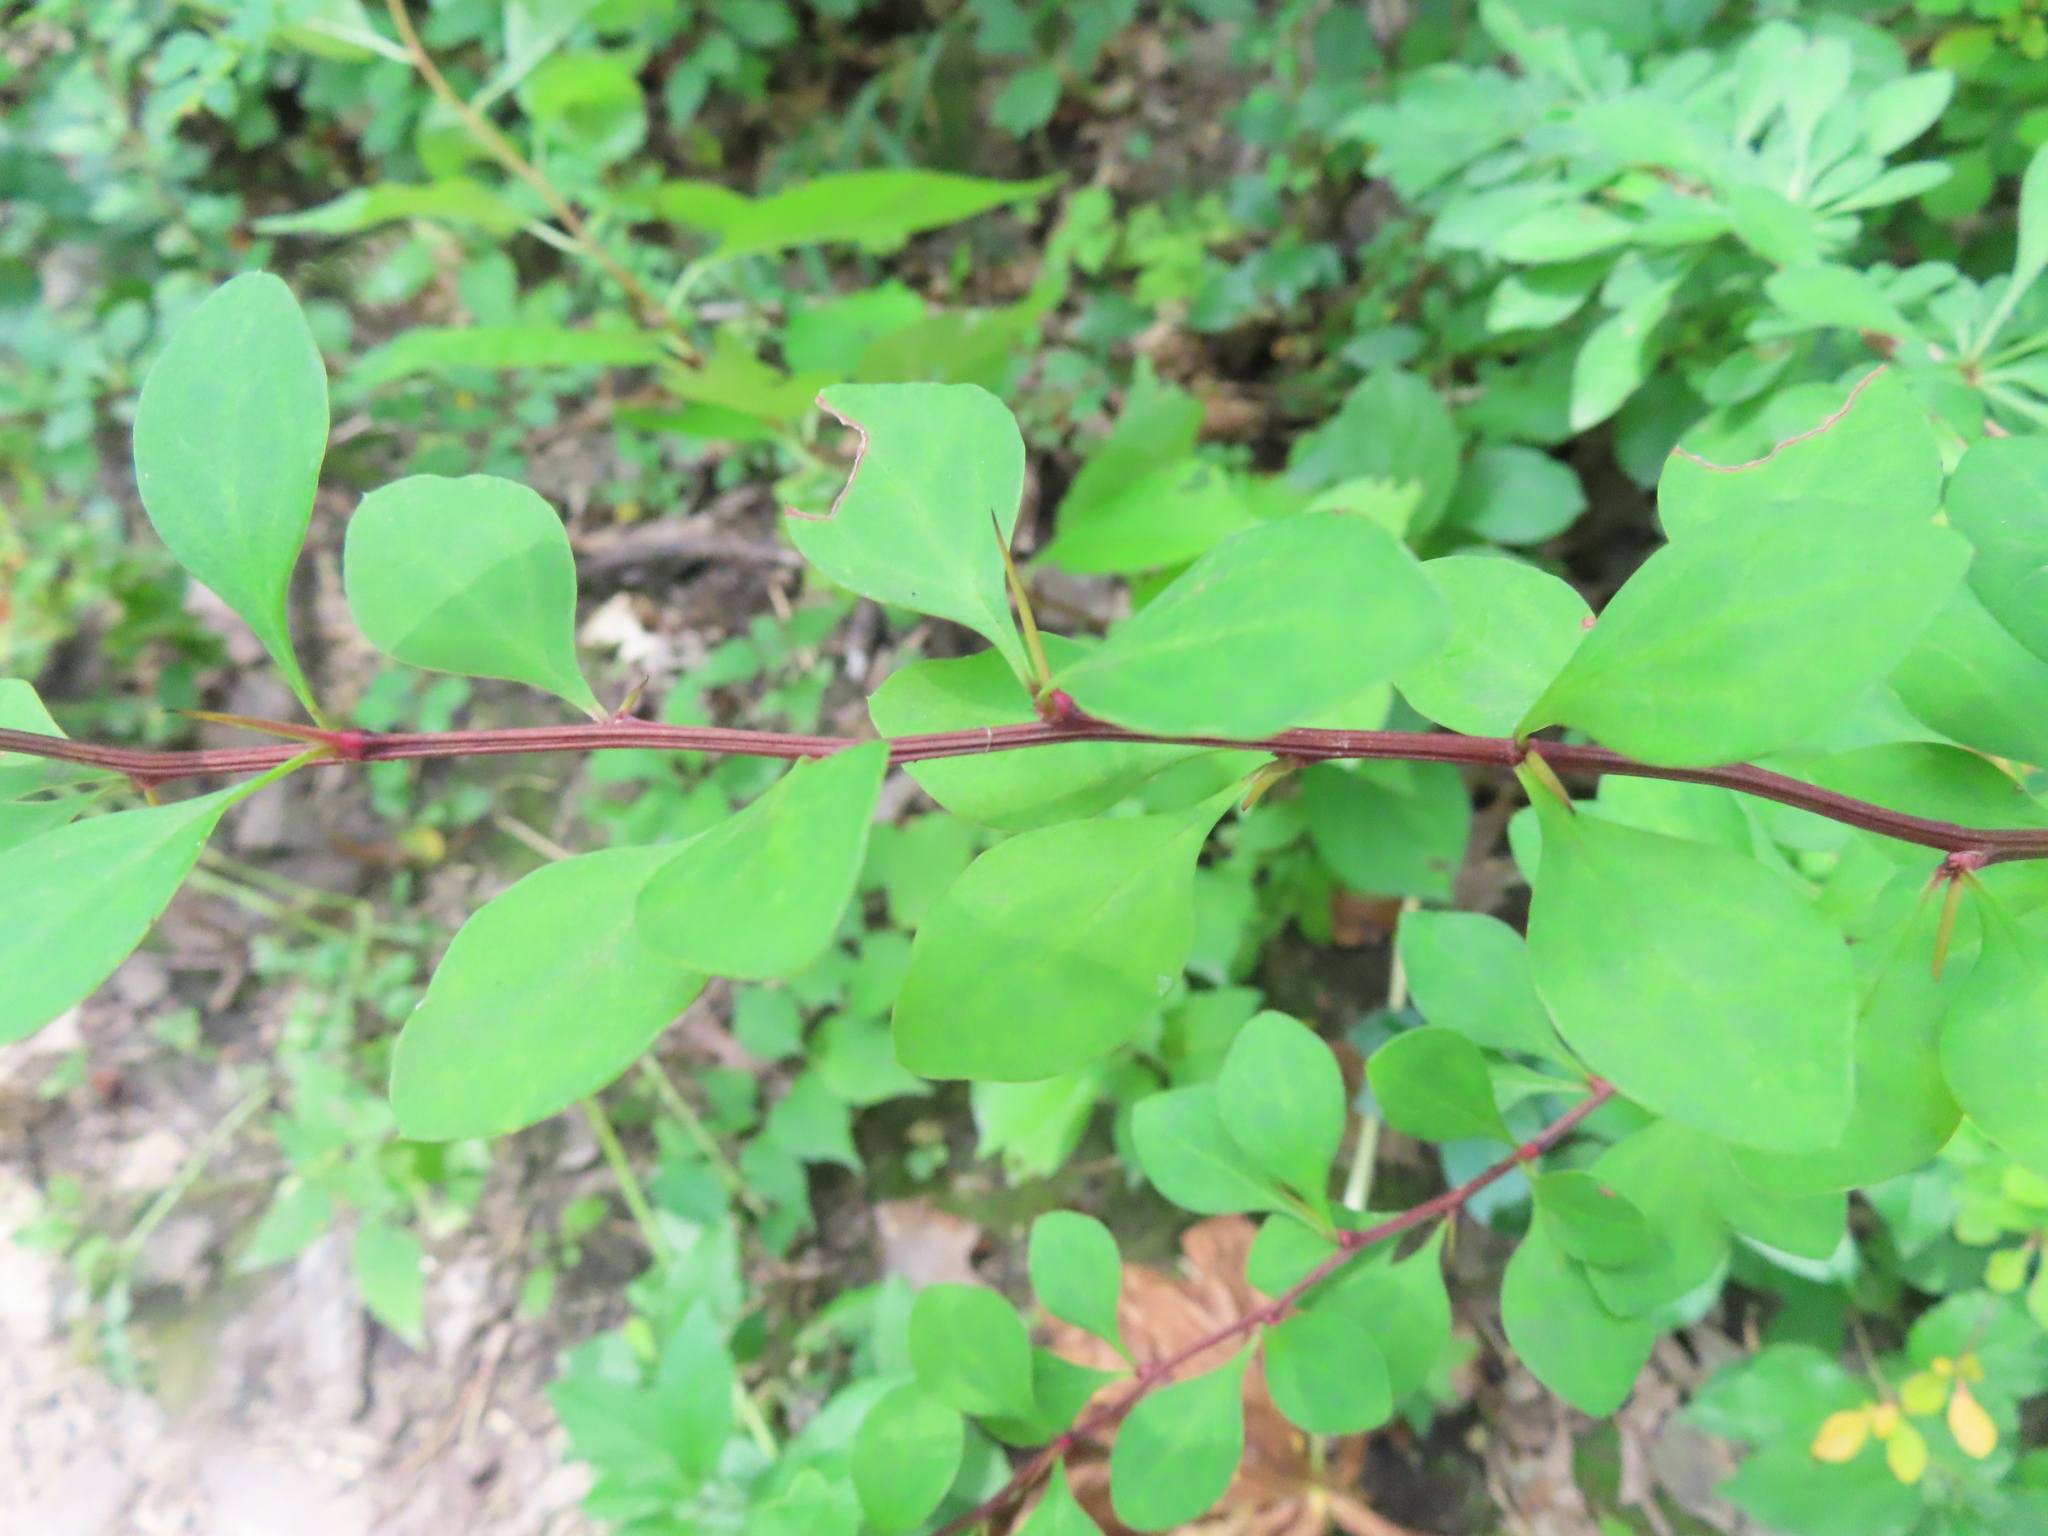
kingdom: Plantae
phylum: Tracheophyta
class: Magnoliopsida
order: Ranunculales
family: Berberidaceae
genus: Berberis
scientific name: Berberis thunbergii
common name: Japanese barberry
